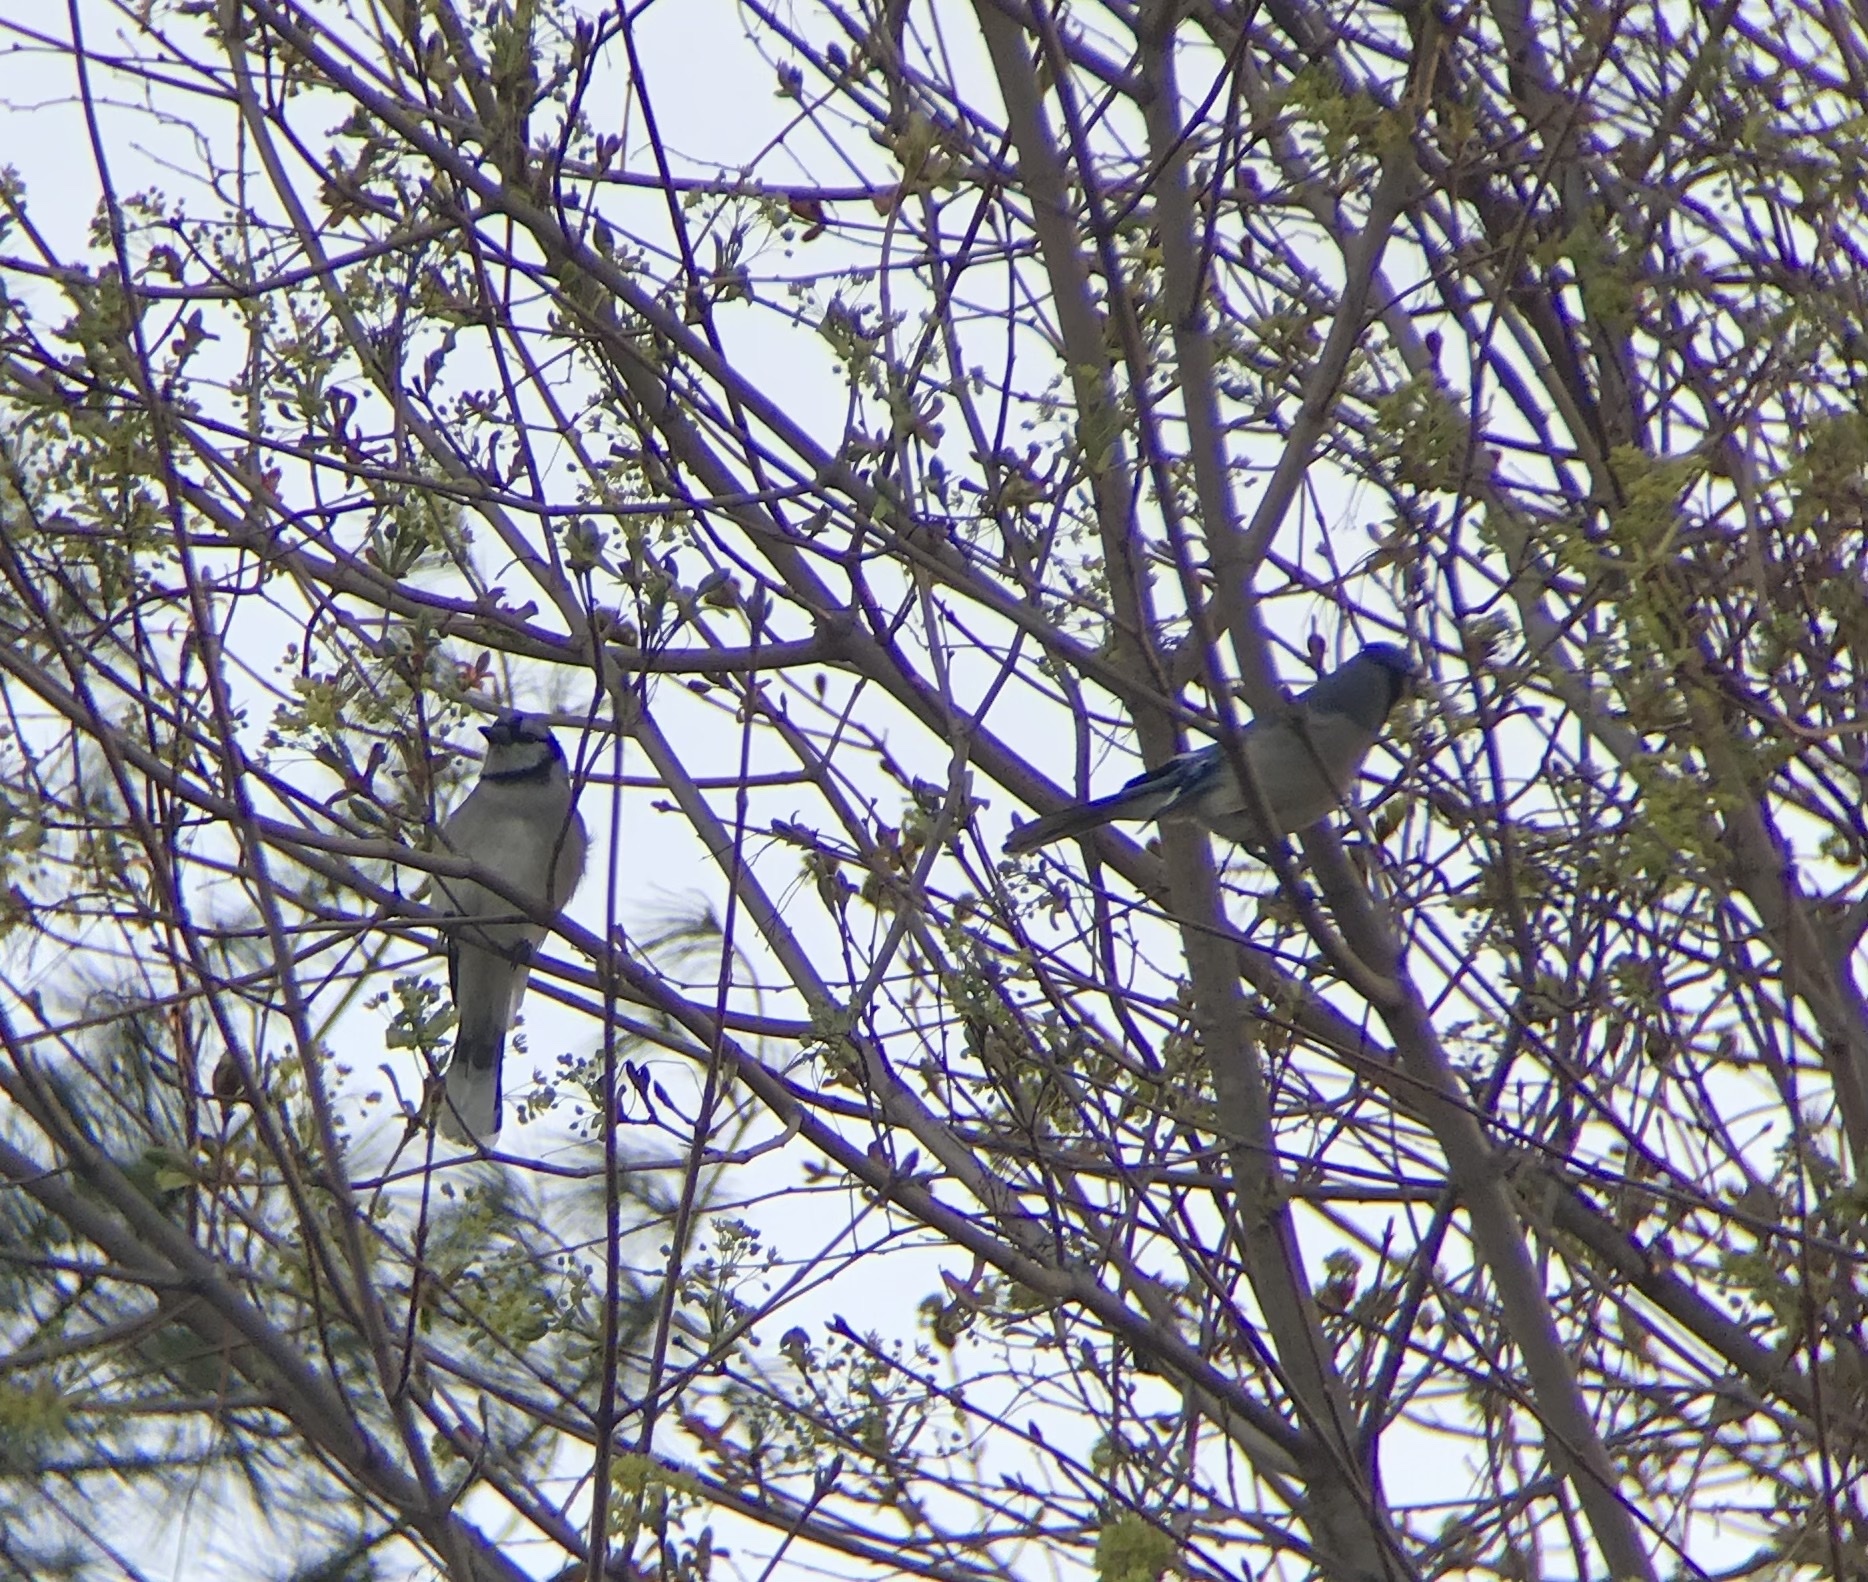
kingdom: Animalia
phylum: Chordata
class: Aves
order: Passeriformes
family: Corvidae
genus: Cyanocitta
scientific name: Cyanocitta cristata
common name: Blue jay
